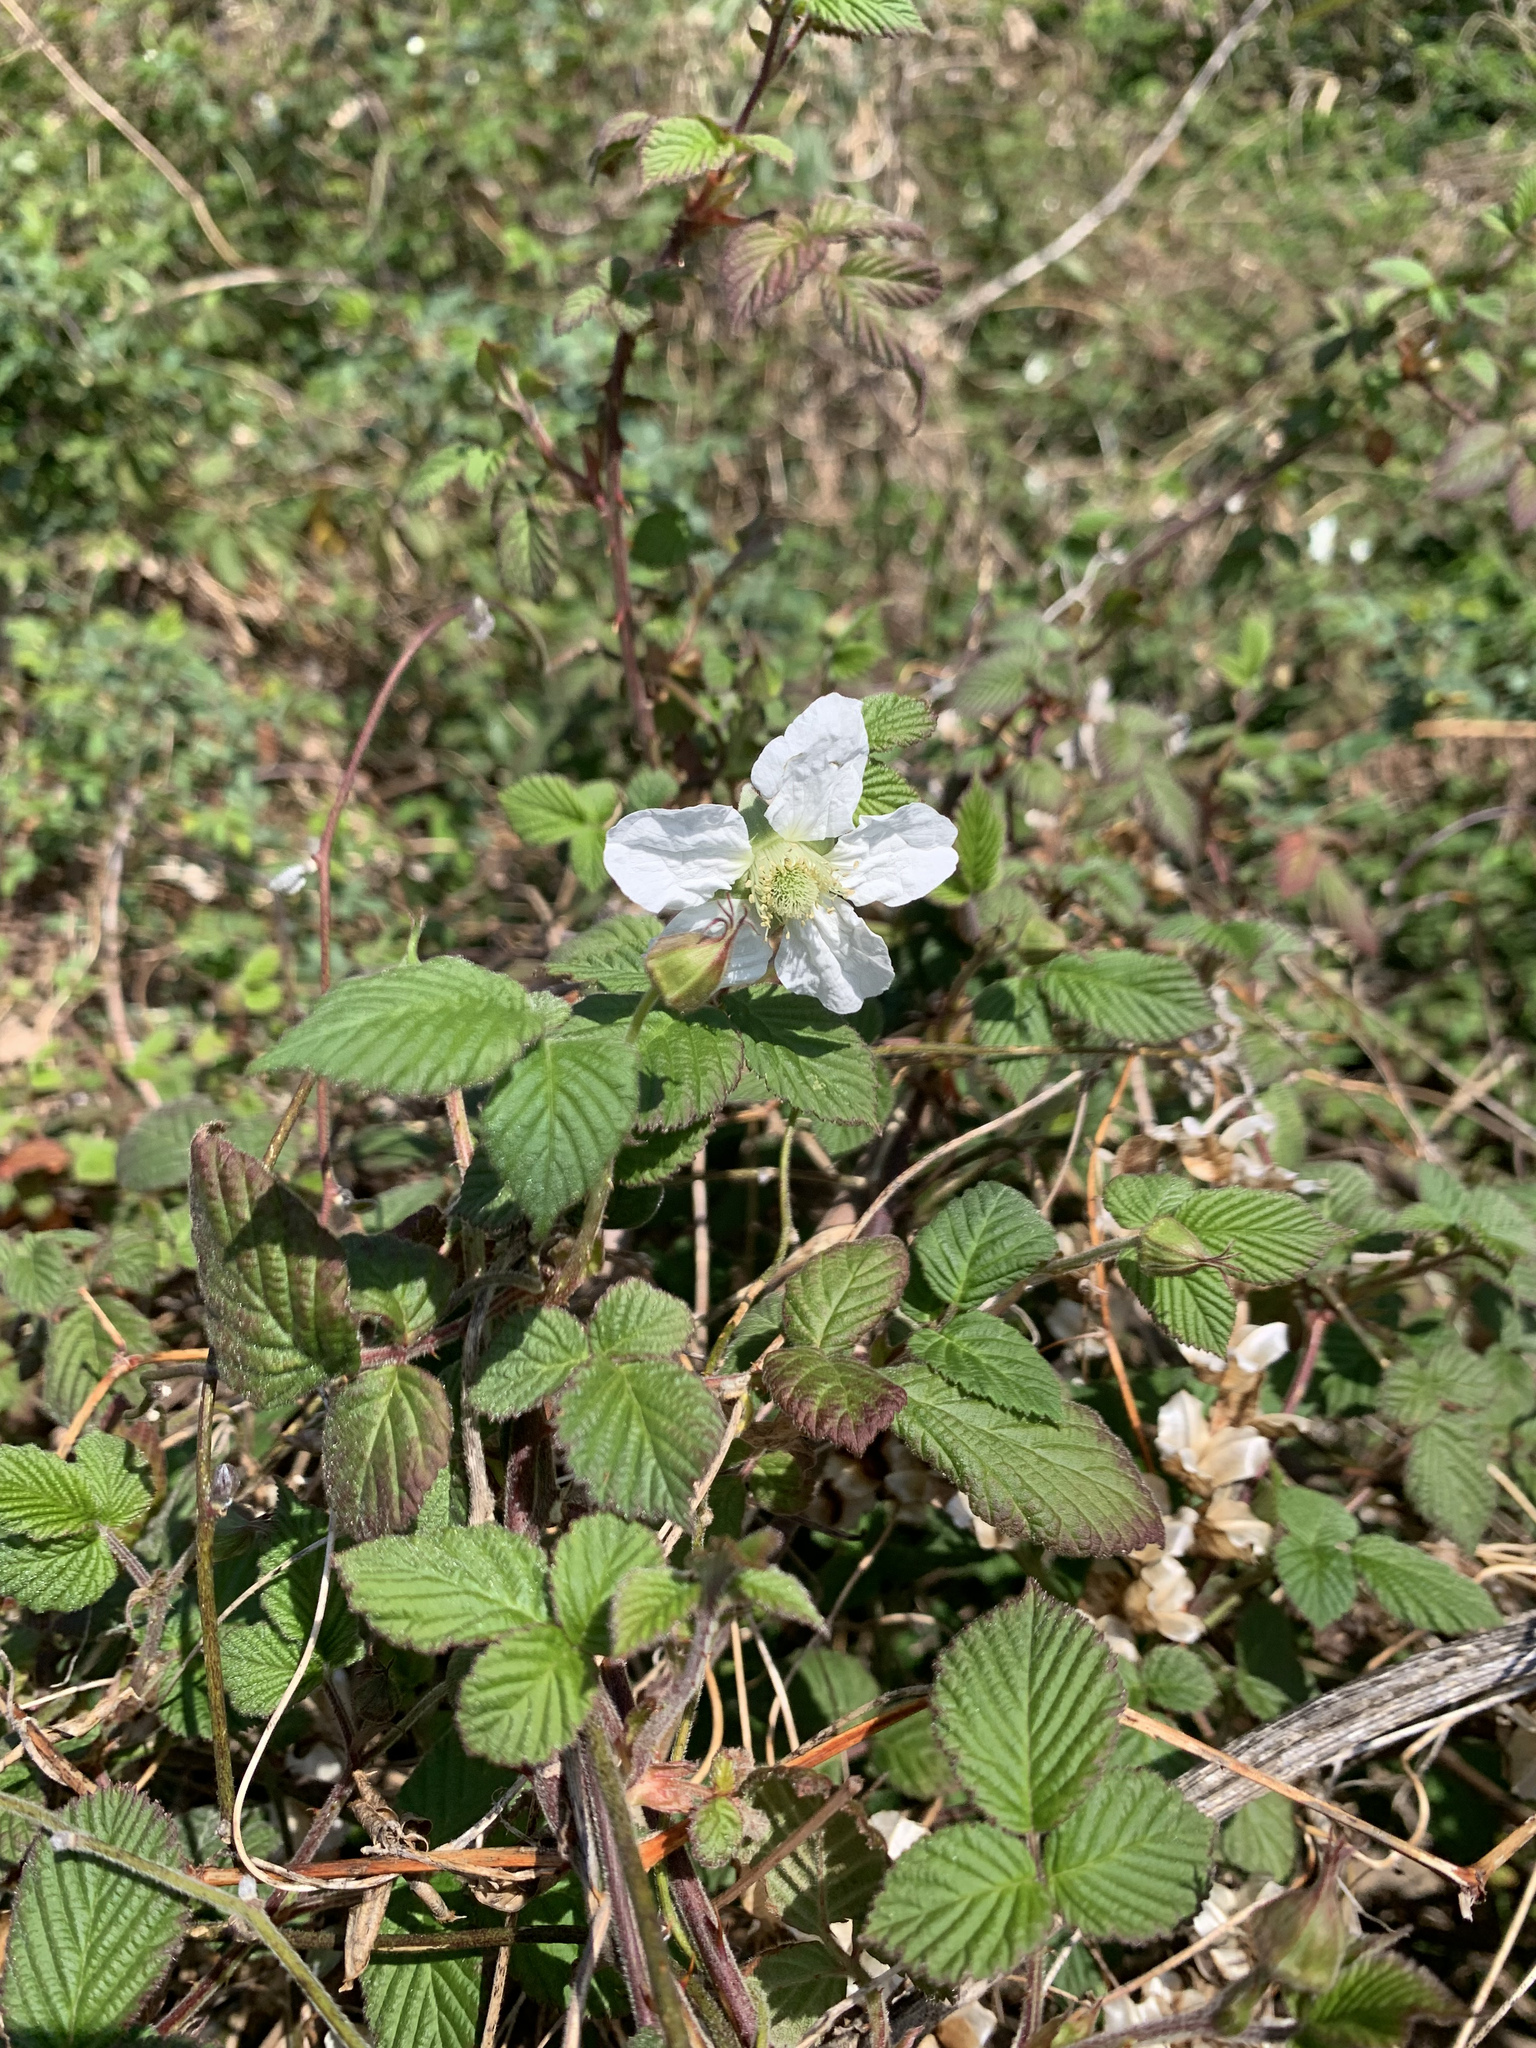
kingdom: Plantae
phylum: Tracheophyta
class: Magnoliopsida
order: Rosales
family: Rosaceae
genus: Rubus
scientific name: Rubus hirsutus
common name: Hirsute raspberry
